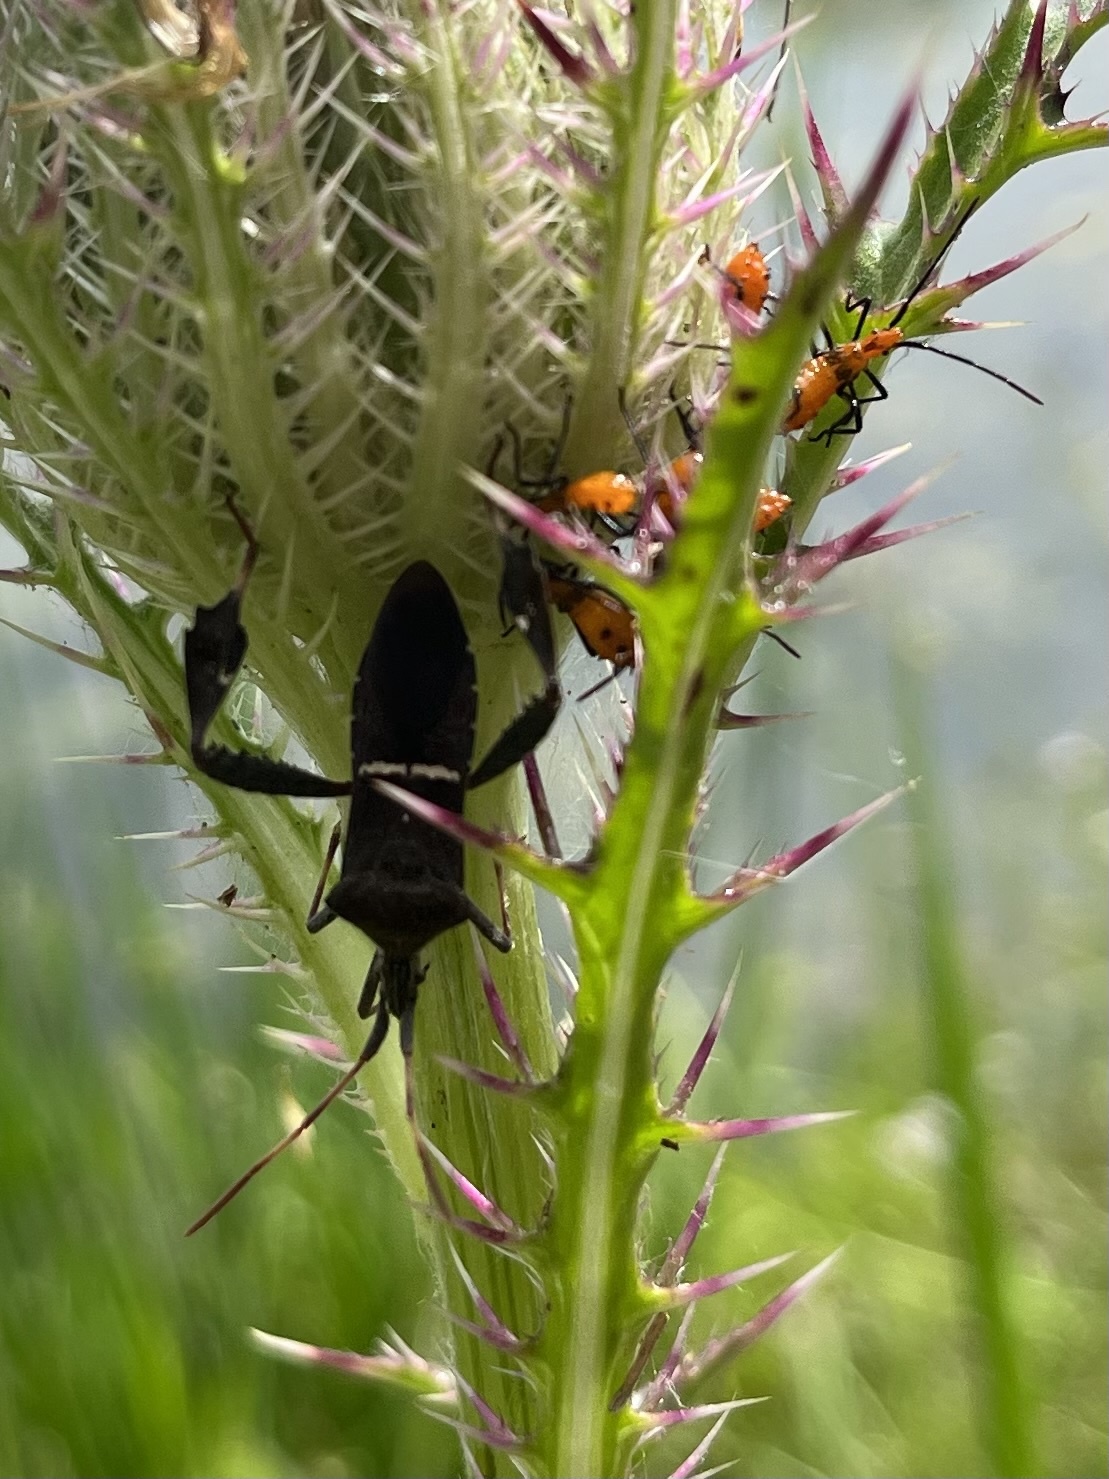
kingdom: Animalia
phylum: Arthropoda
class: Insecta
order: Hemiptera
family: Coreidae
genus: Leptoglossus
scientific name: Leptoglossus phyllopus
